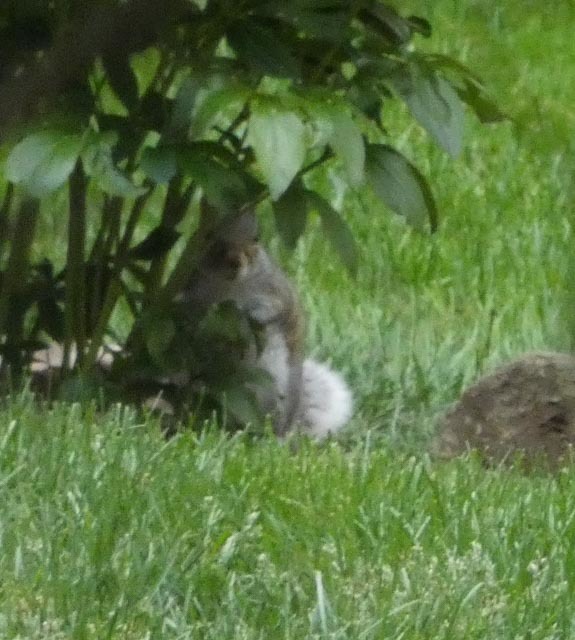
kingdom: Animalia
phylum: Chordata
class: Mammalia
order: Rodentia
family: Sciuridae
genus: Sciurus
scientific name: Sciurus carolinensis
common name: Eastern gray squirrel
